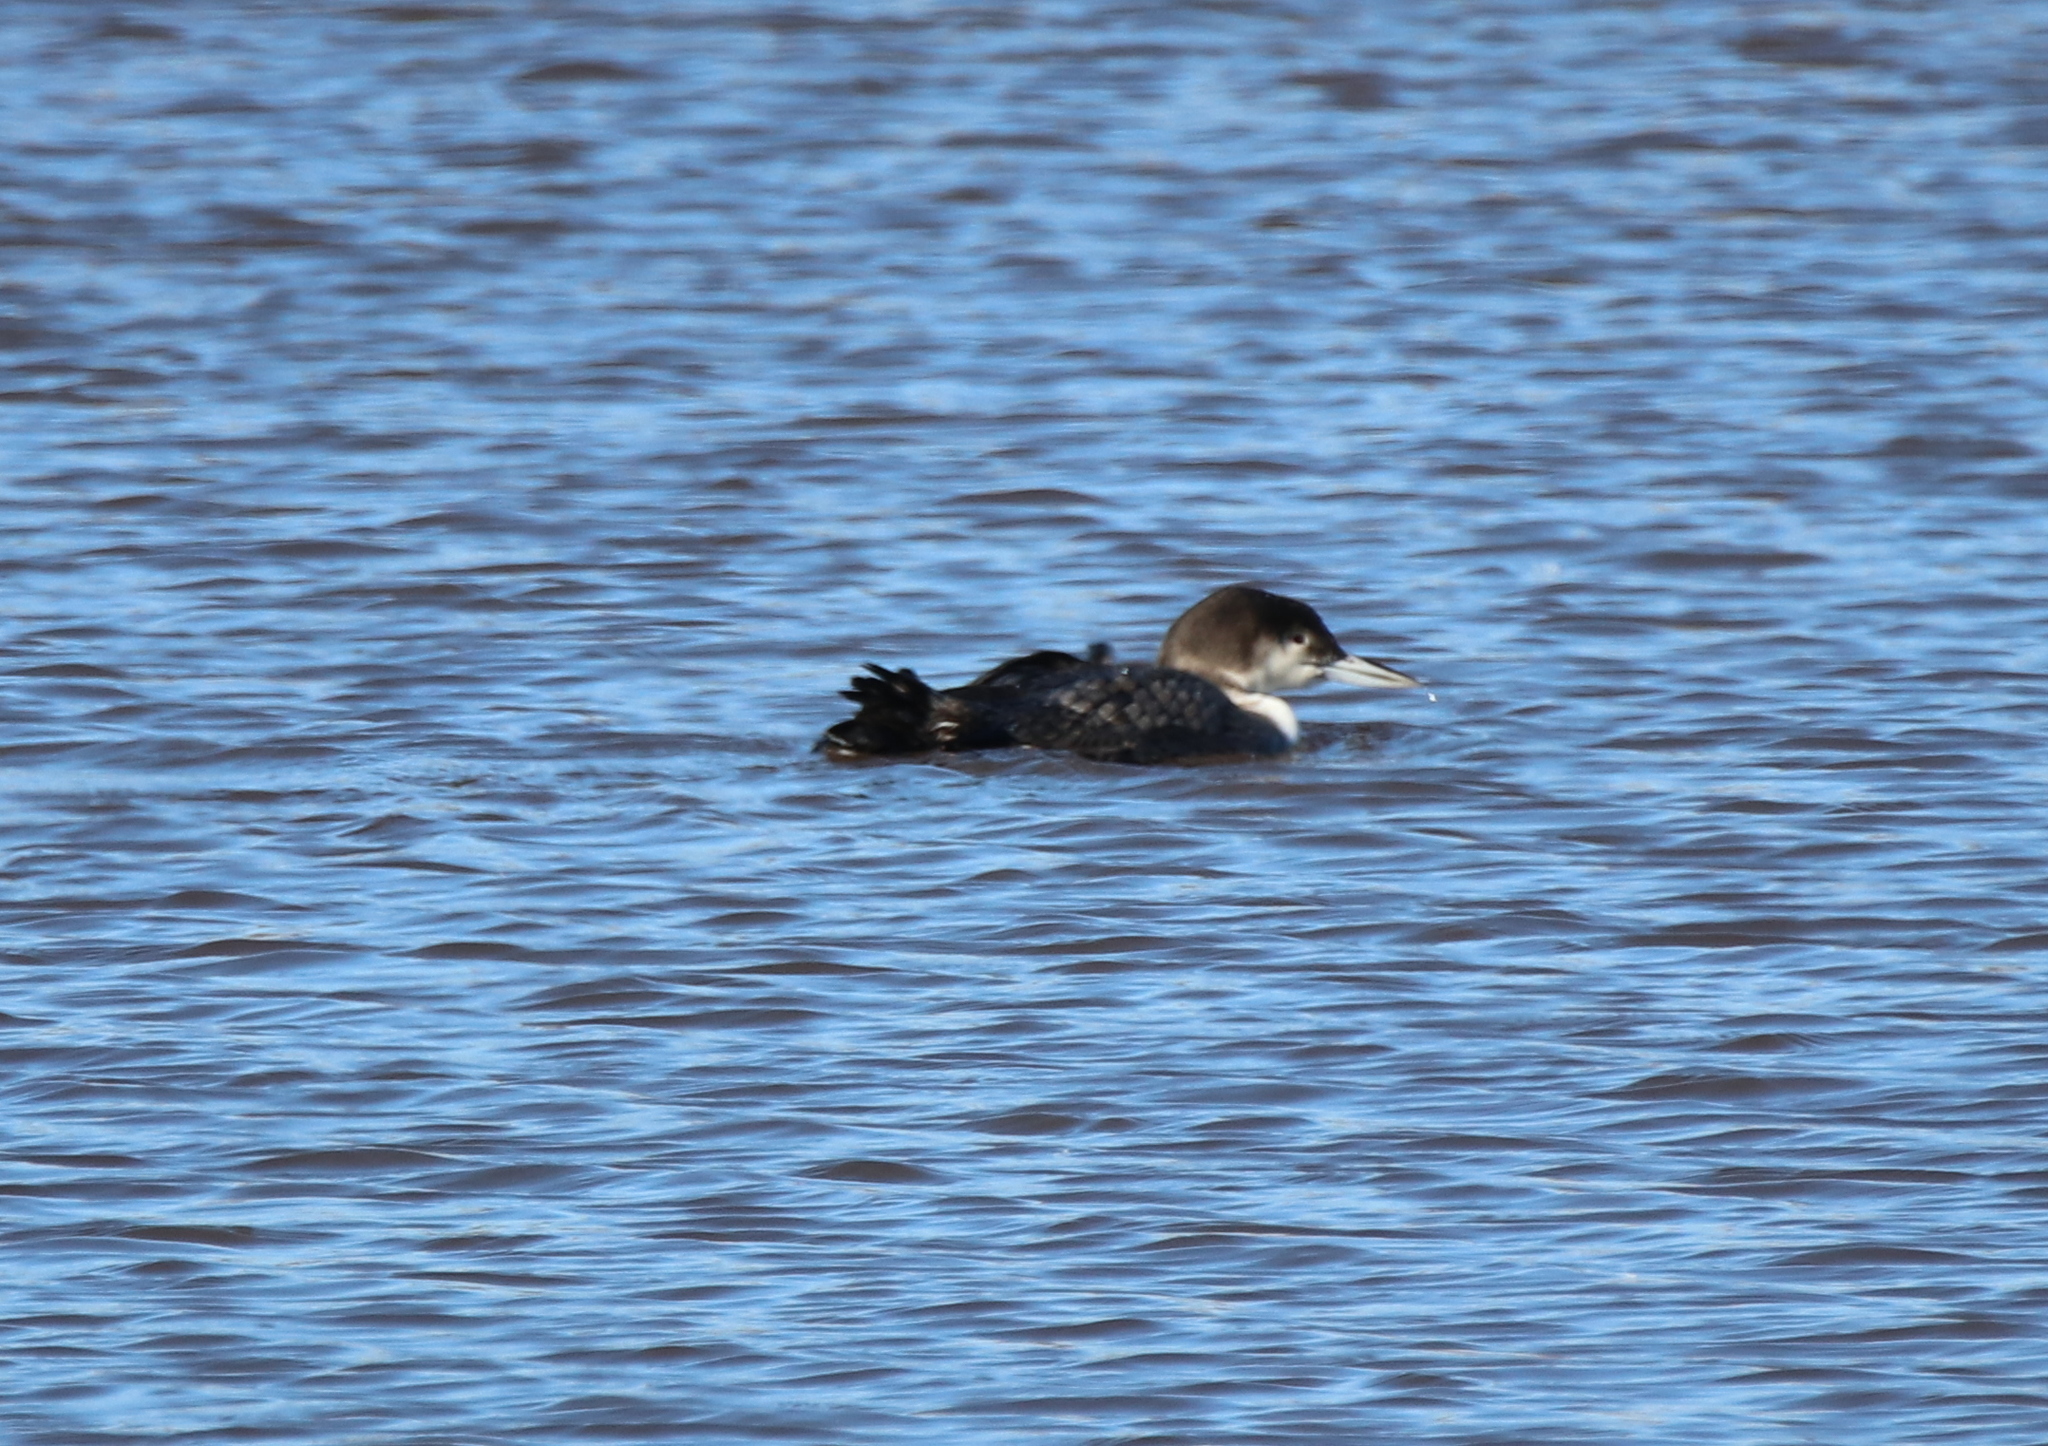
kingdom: Animalia
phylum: Chordata
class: Aves
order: Gaviiformes
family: Gaviidae
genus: Gavia
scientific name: Gavia immer
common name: Common loon
